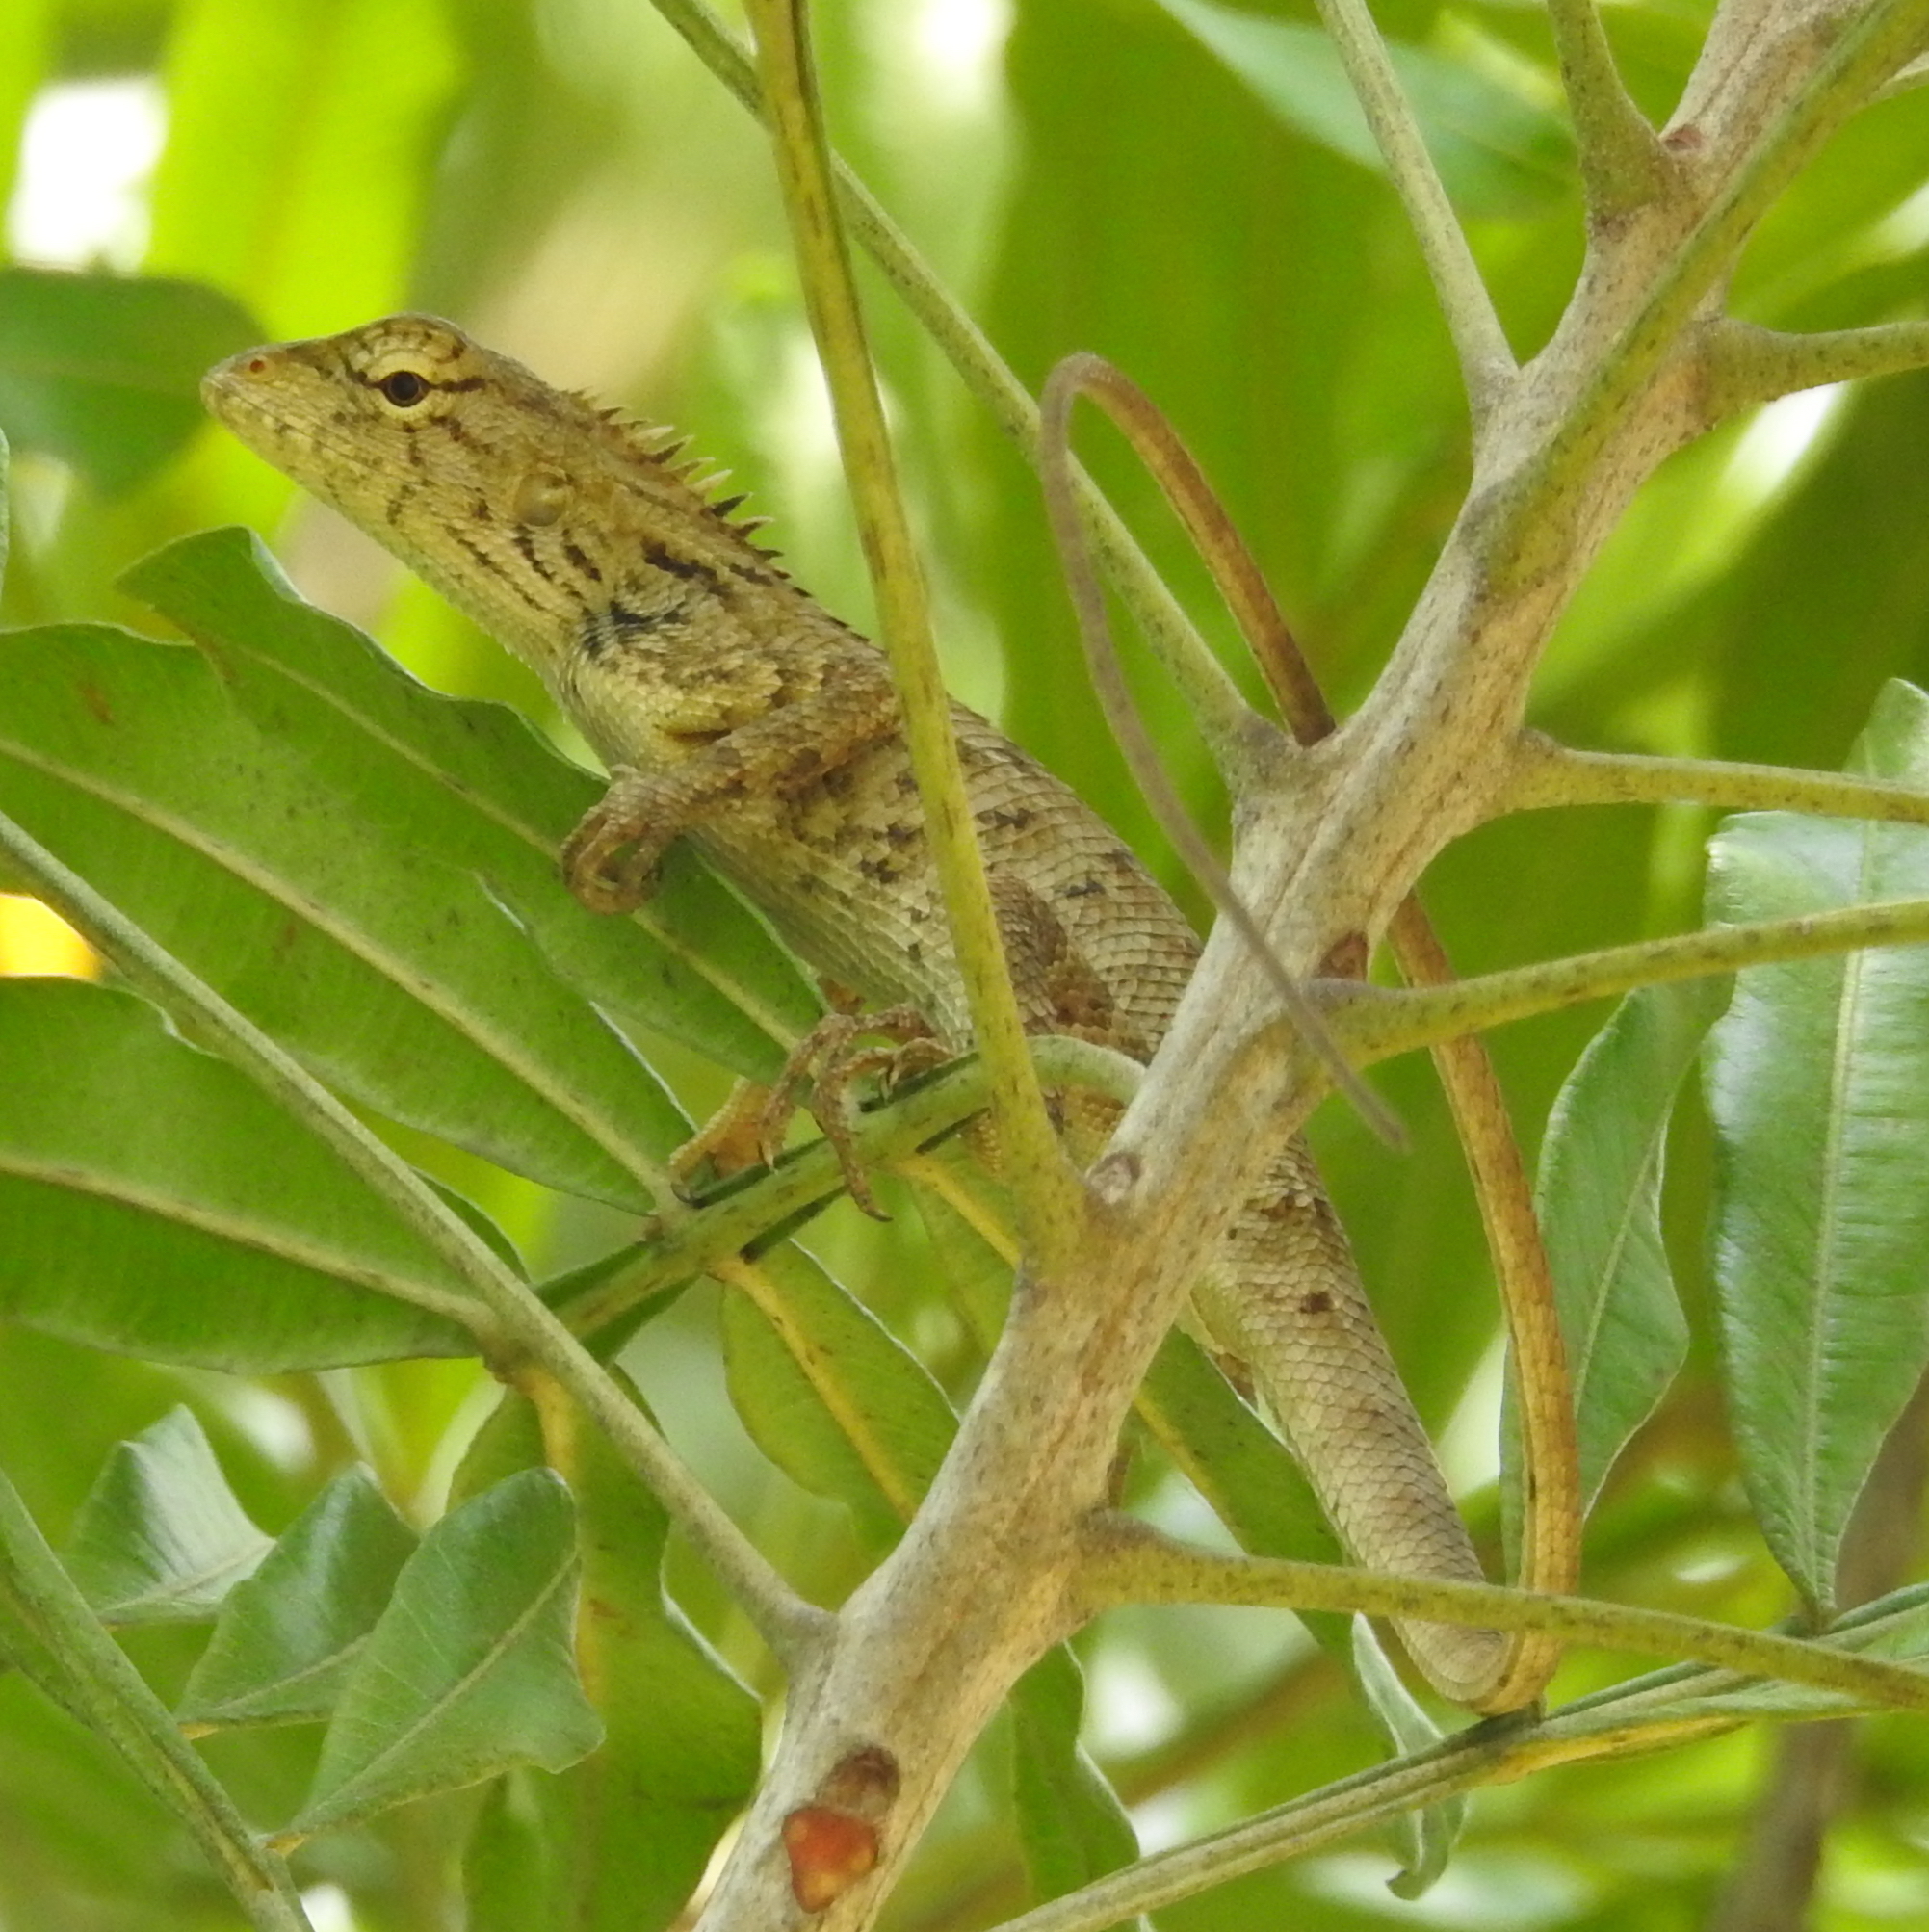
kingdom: Animalia
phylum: Chordata
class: Squamata
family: Agamidae
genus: Calotes
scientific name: Calotes versicolor
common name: Oriental garden lizard
